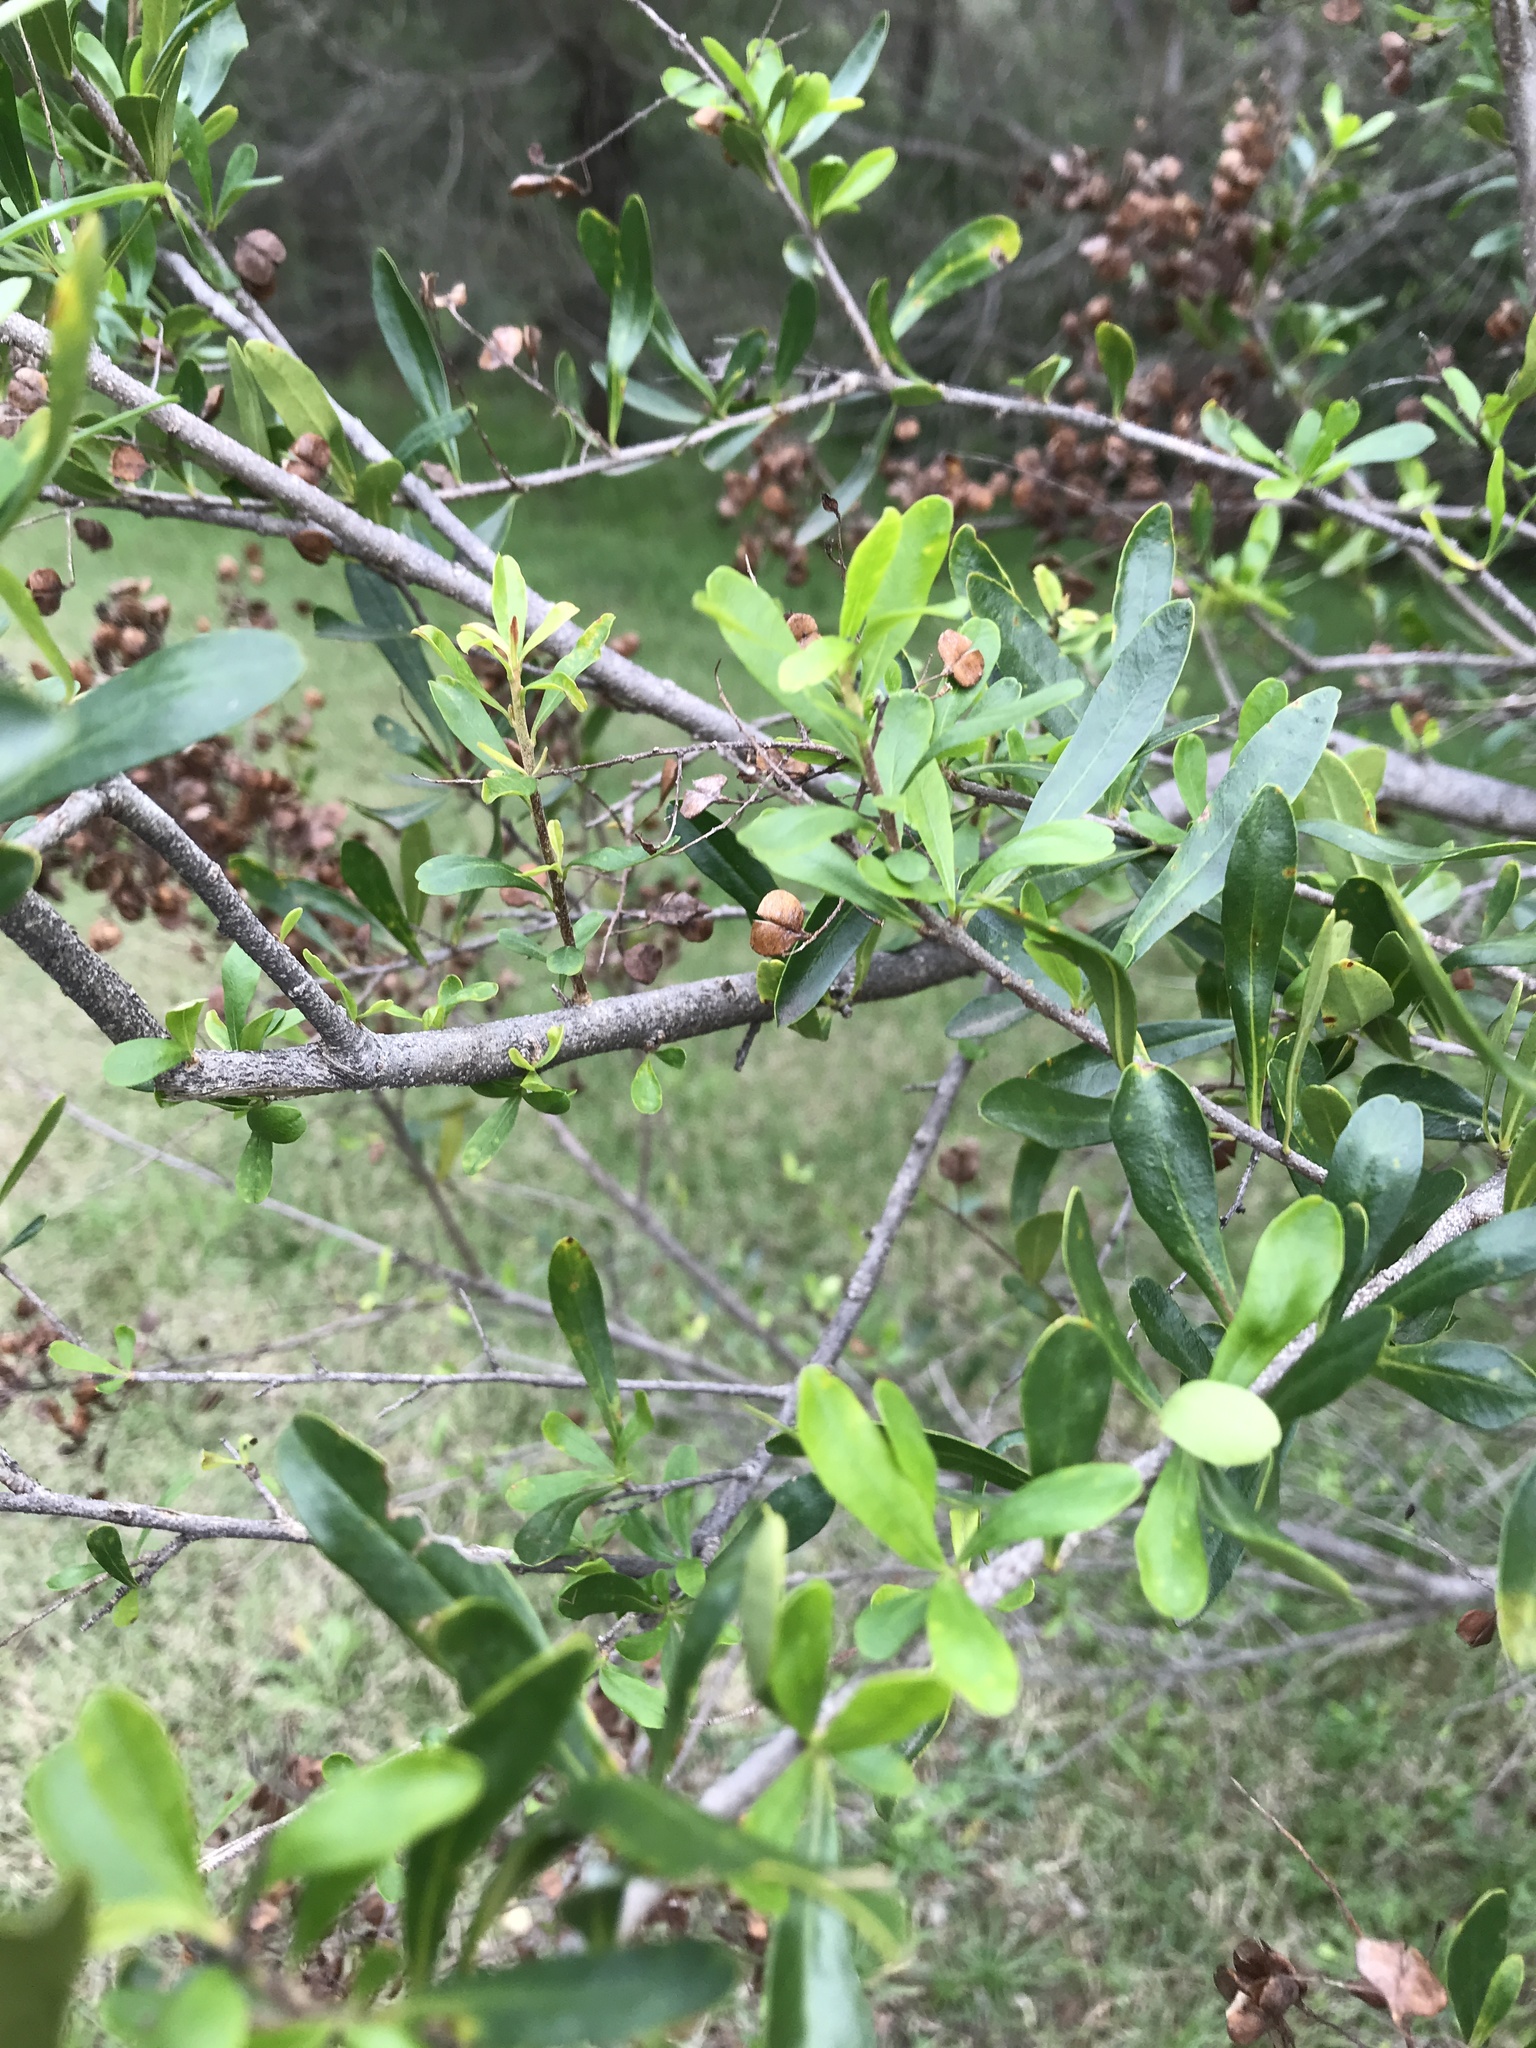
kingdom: Plantae
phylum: Tracheophyta
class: Magnoliopsida
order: Apiales
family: Pittosporaceae
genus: Bursaria
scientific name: Bursaria spinosa
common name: Australian blackthorn
